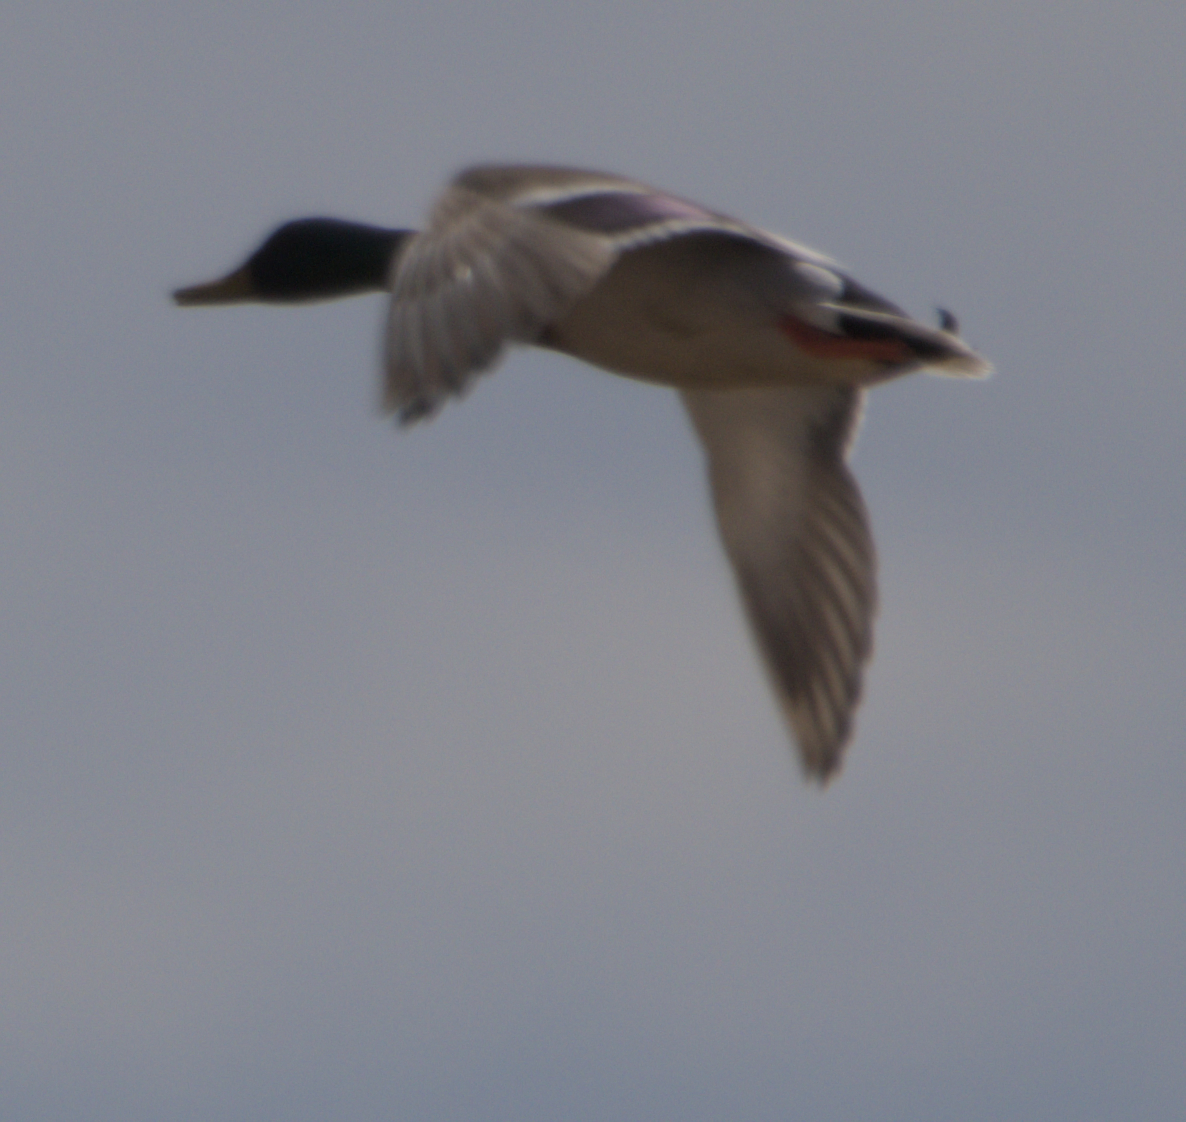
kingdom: Animalia
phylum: Chordata
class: Aves
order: Anseriformes
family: Anatidae
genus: Anas
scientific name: Anas platyrhynchos
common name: Mallard
